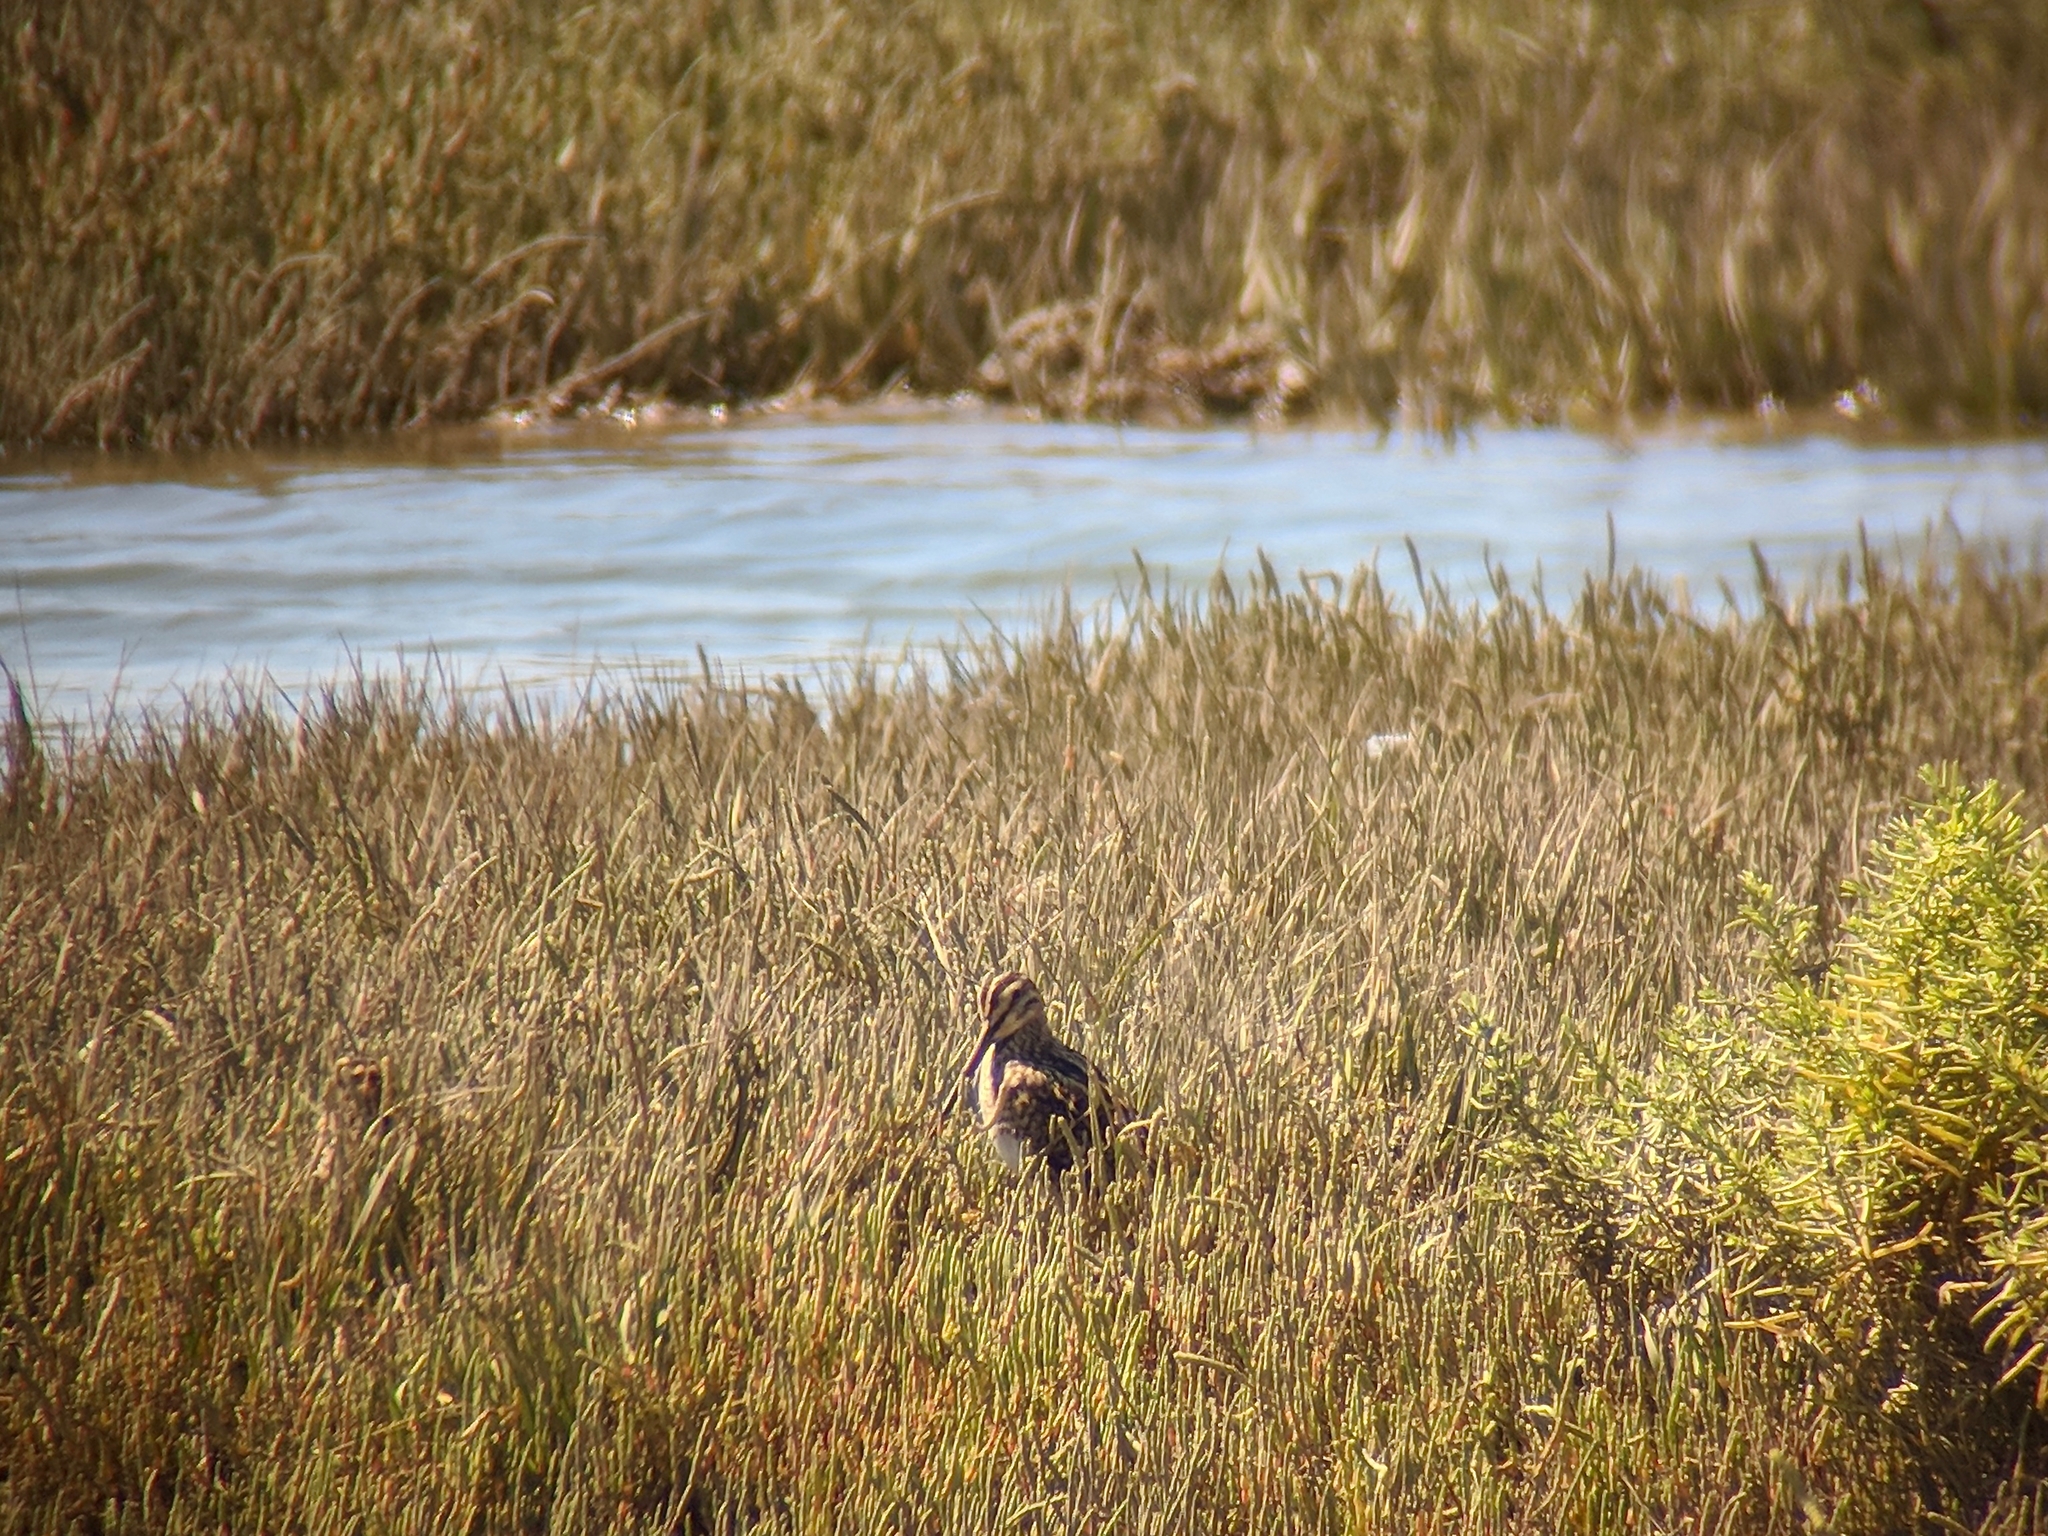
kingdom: Animalia
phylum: Chordata
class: Aves
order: Charadriiformes
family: Scolopacidae
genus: Gallinago
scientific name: Gallinago gallinago
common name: Common snipe
